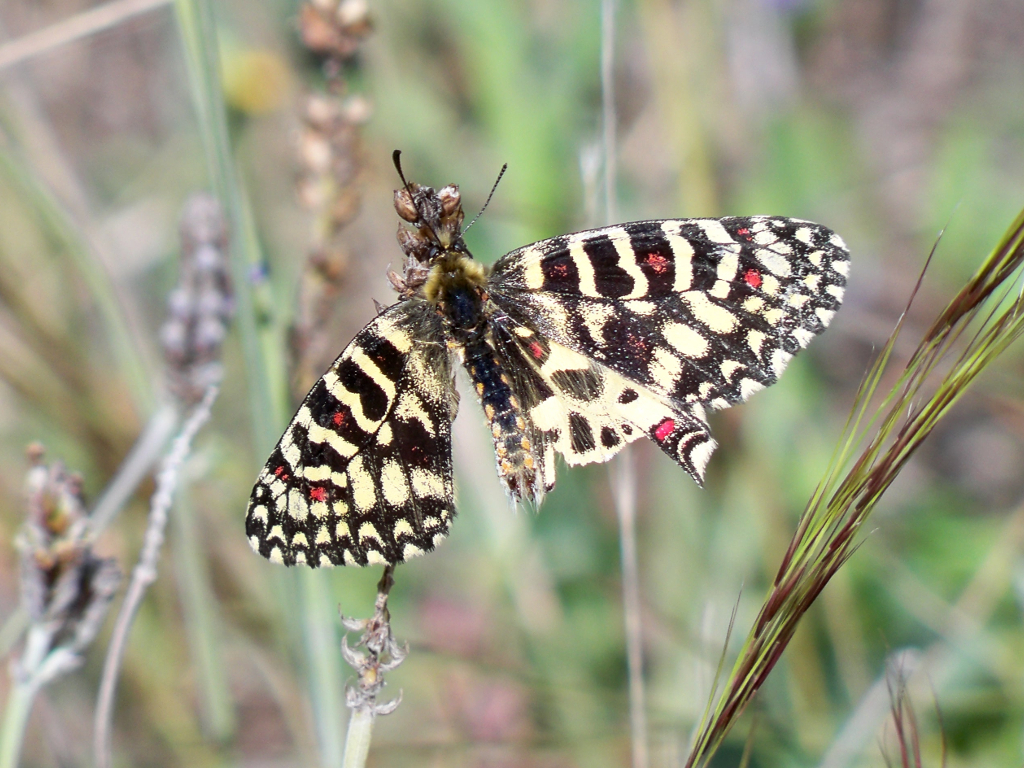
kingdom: Animalia
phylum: Arthropoda
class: Insecta
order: Lepidoptera
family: Papilionidae
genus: Zerynthia
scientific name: Zerynthia rumina
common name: Spanish festoon
